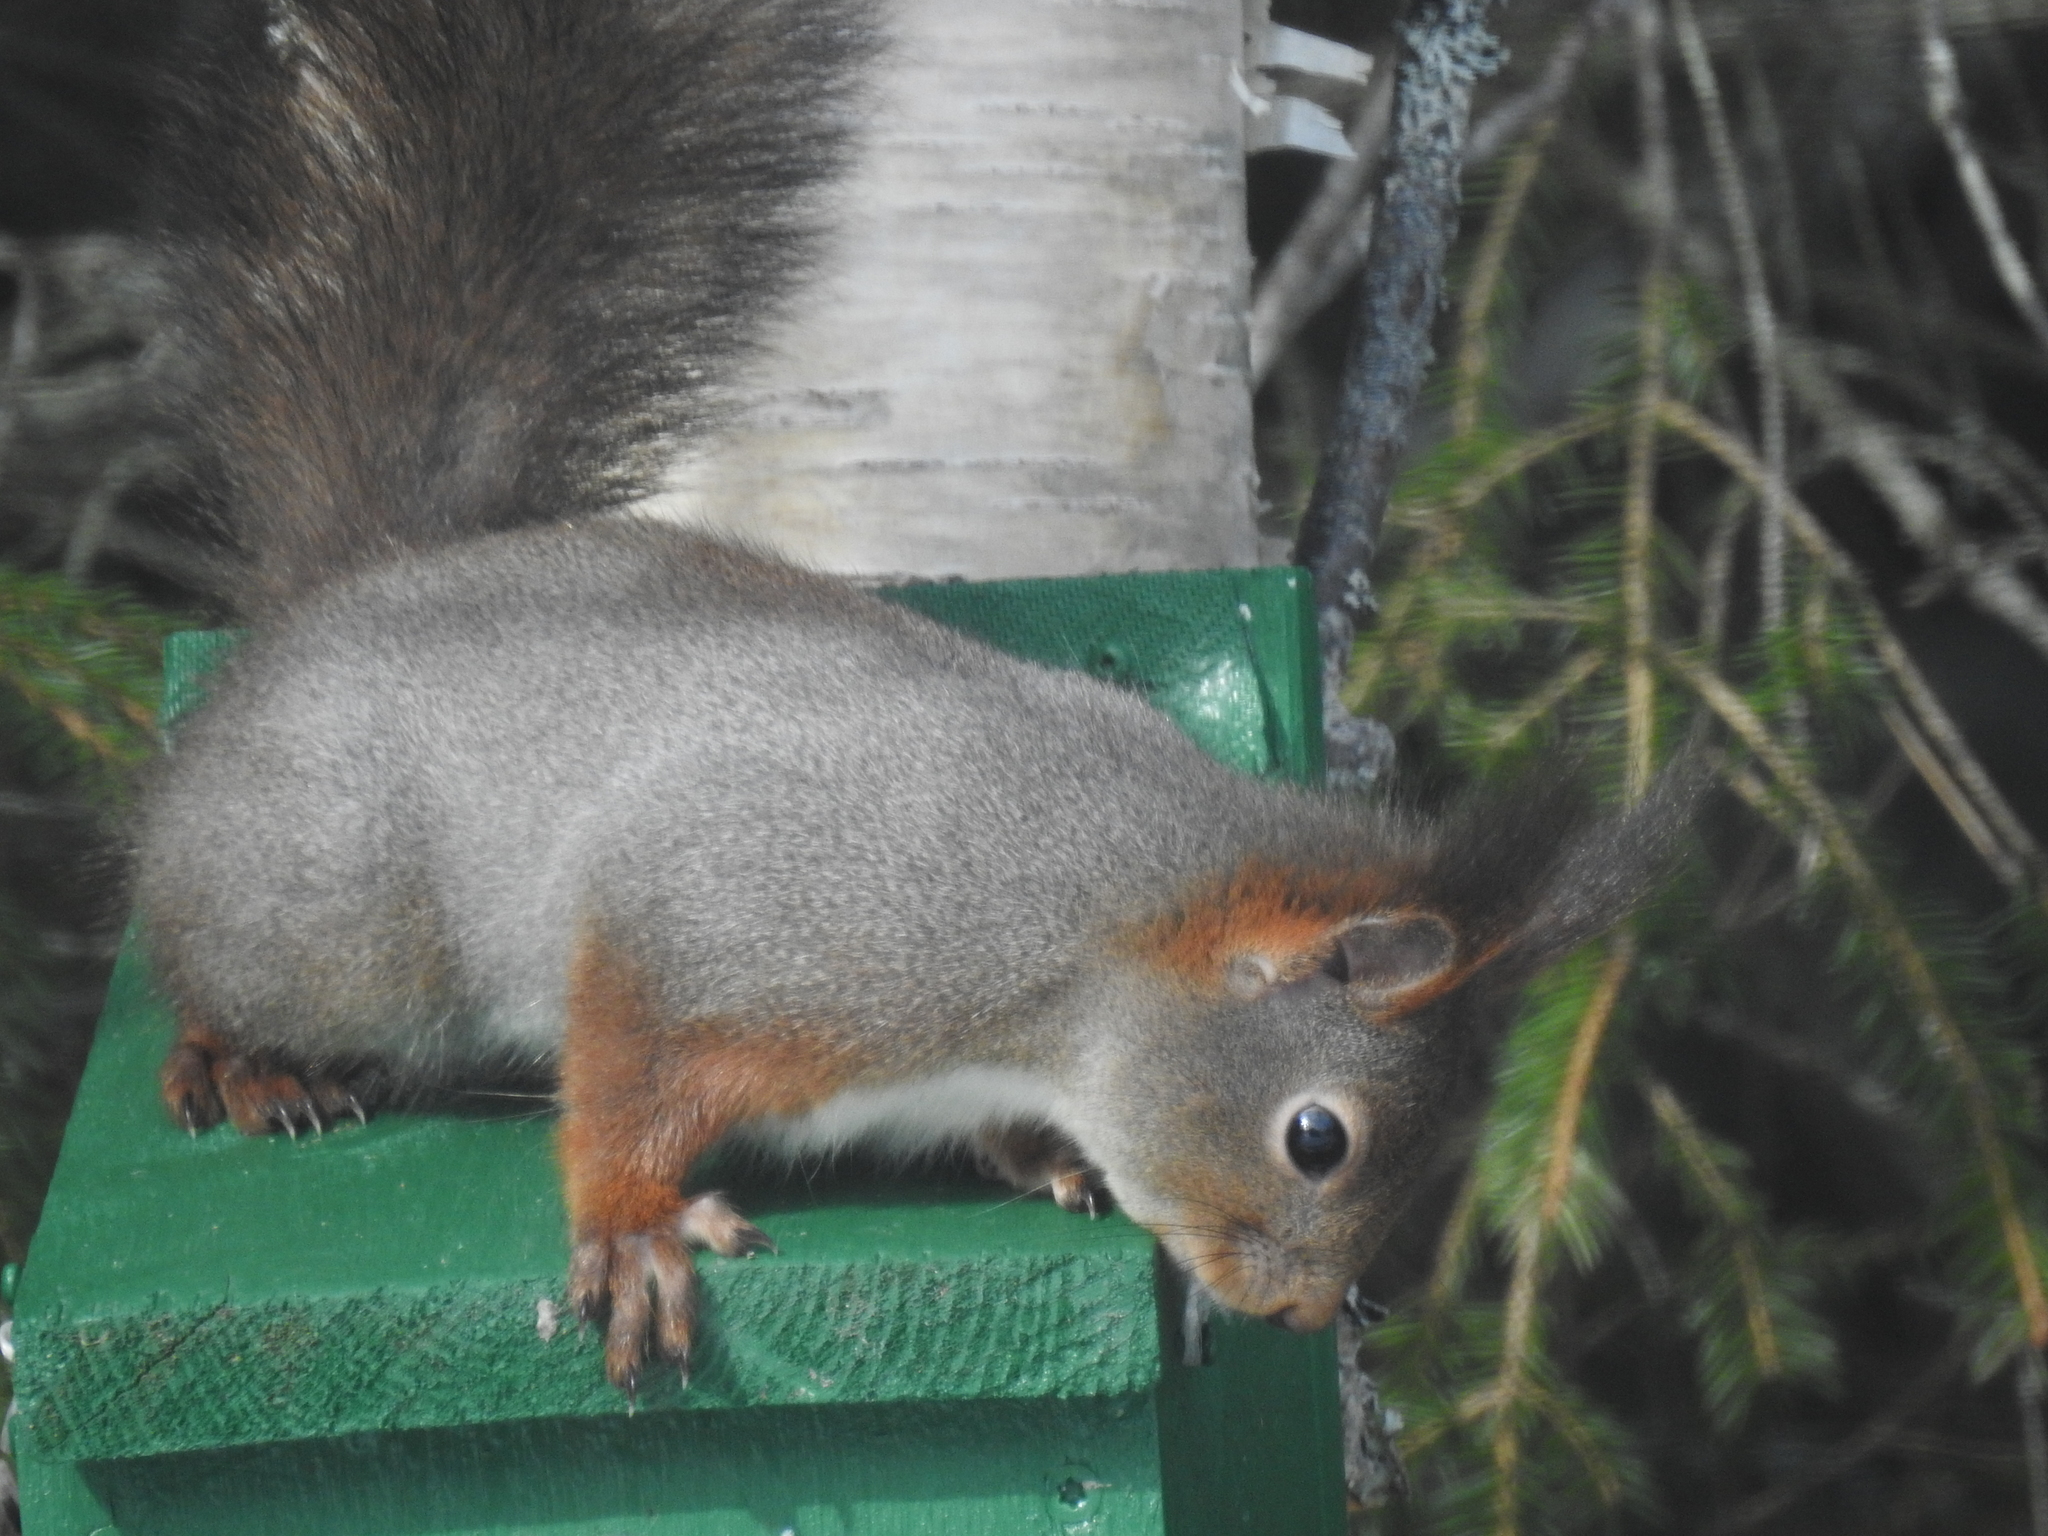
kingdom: Animalia
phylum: Chordata
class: Mammalia
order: Rodentia
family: Sciuridae
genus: Sciurus
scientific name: Sciurus vulgaris
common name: Eurasian red squirrel
